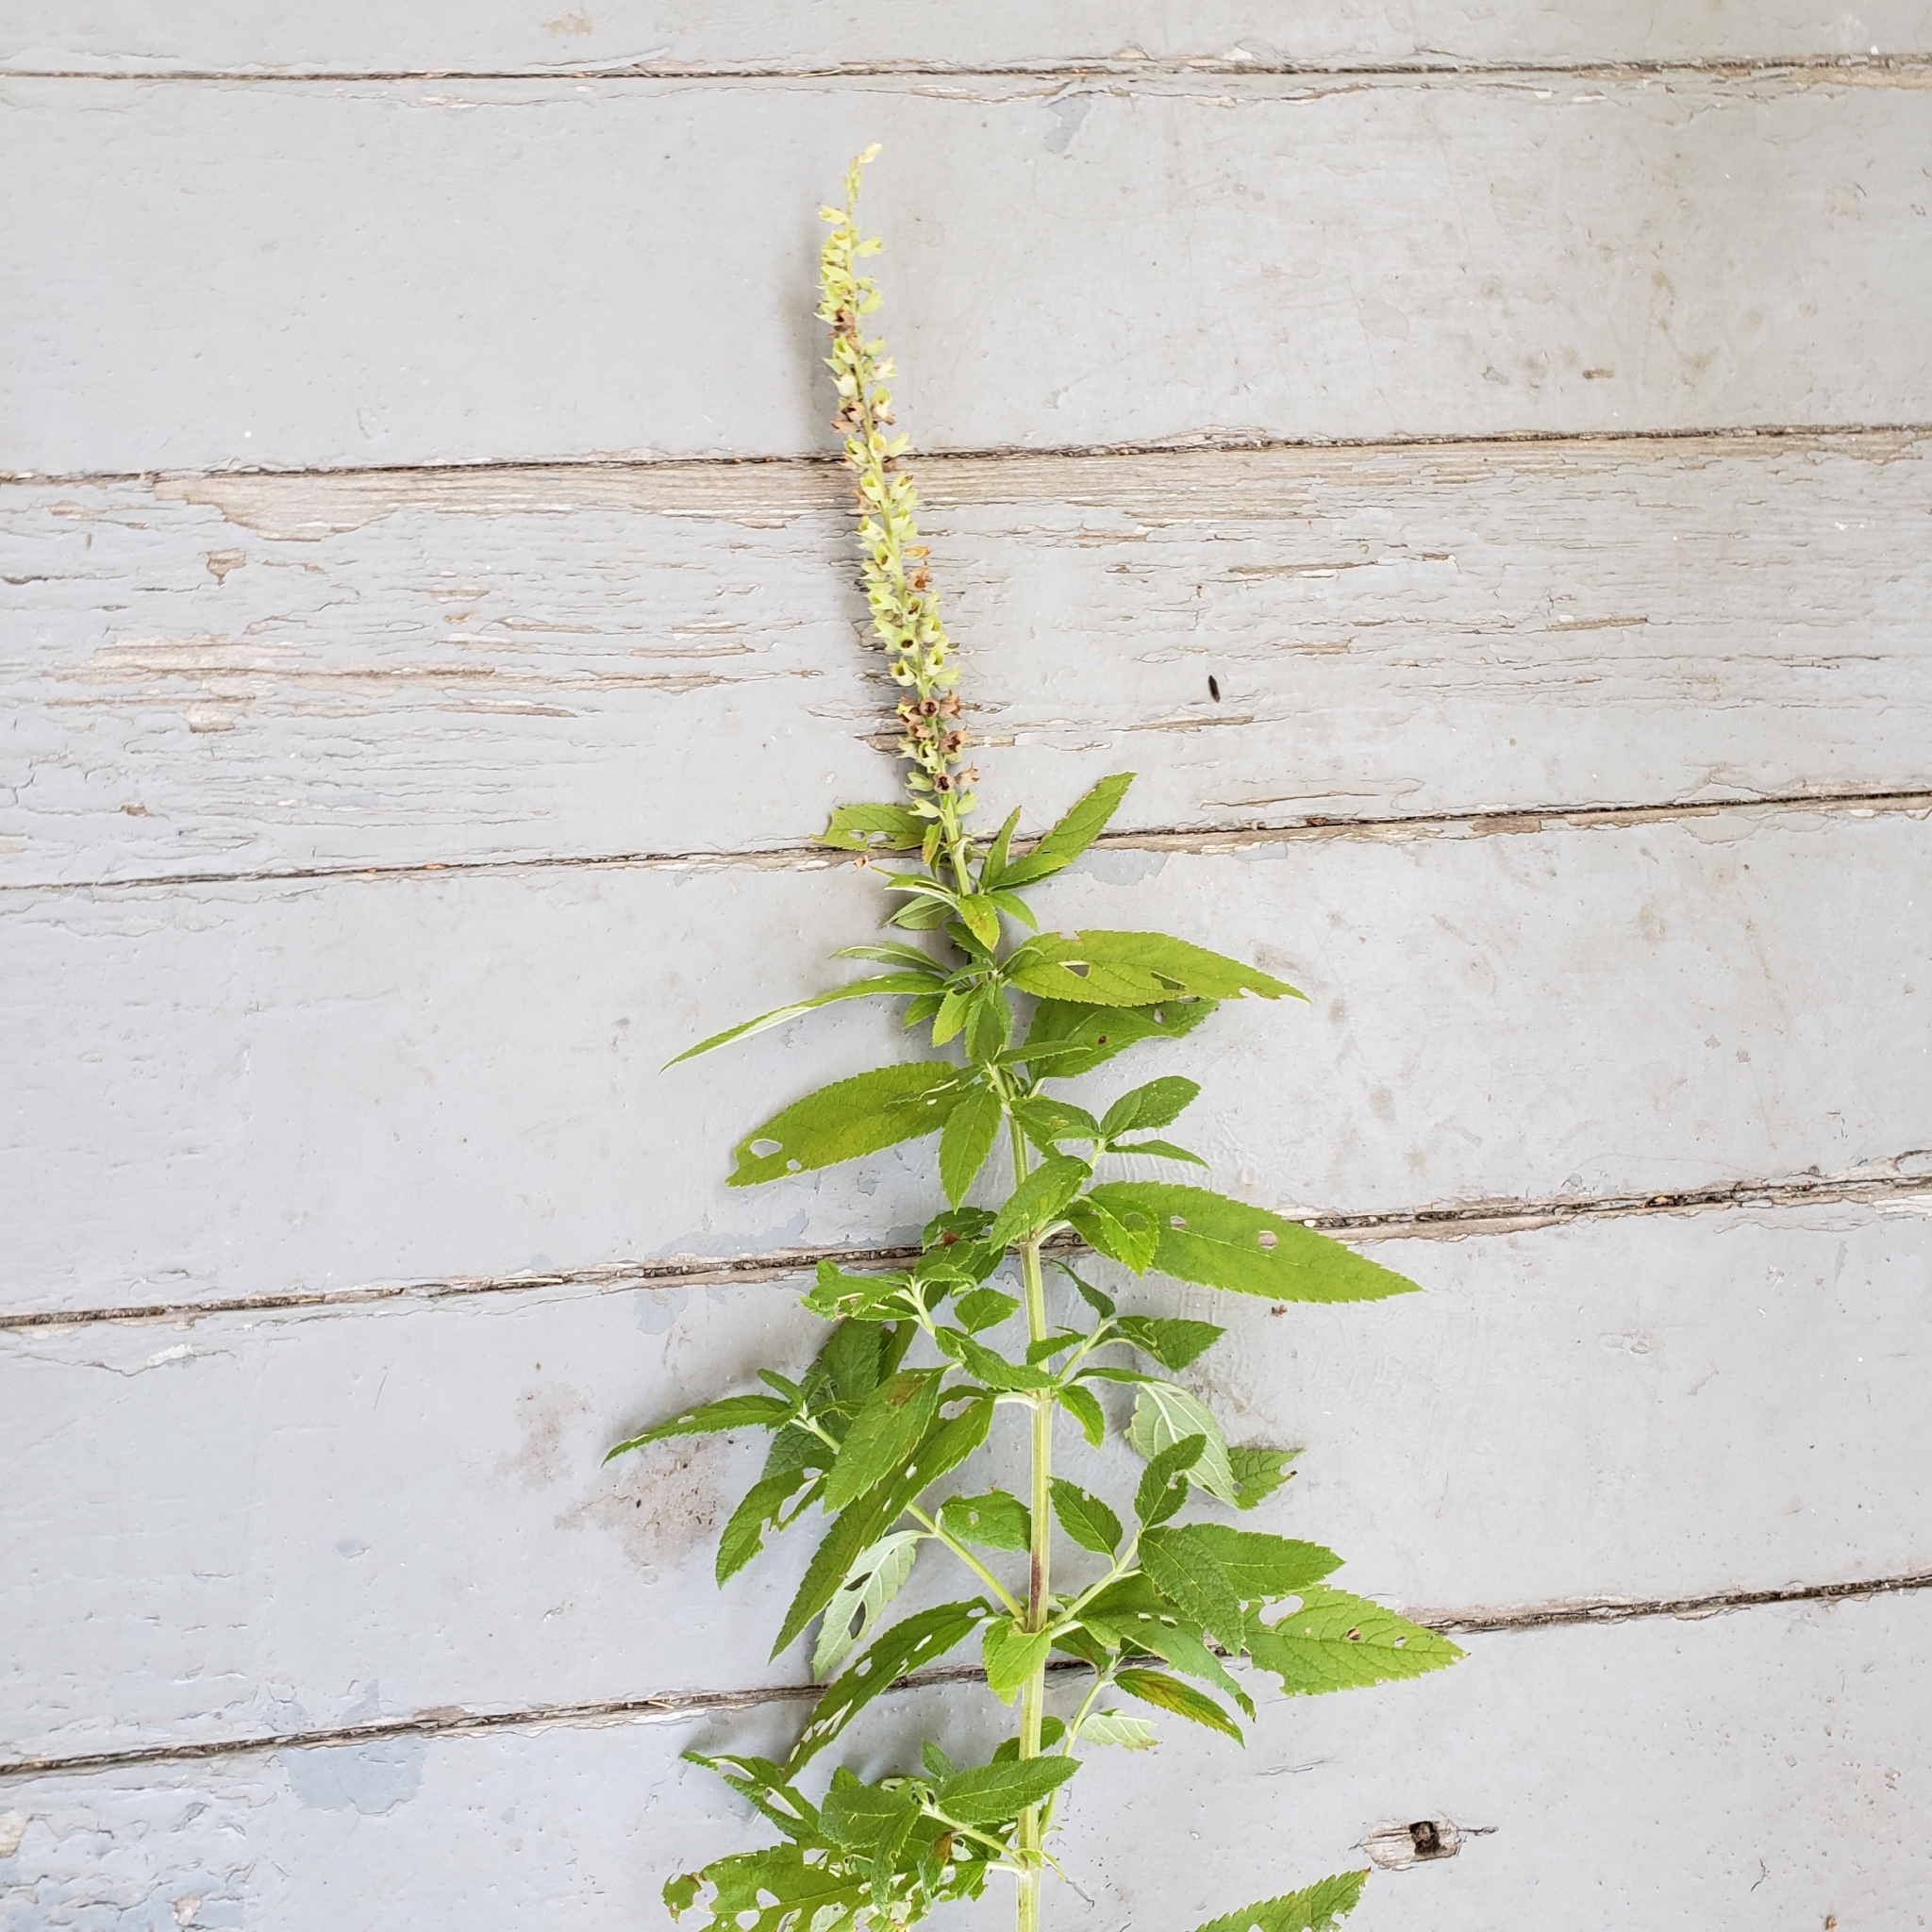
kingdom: Plantae
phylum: Tracheophyta
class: Magnoliopsida
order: Lamiales
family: Lamiaceae
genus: Teucrium
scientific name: Teucrium canadense
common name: American germander
